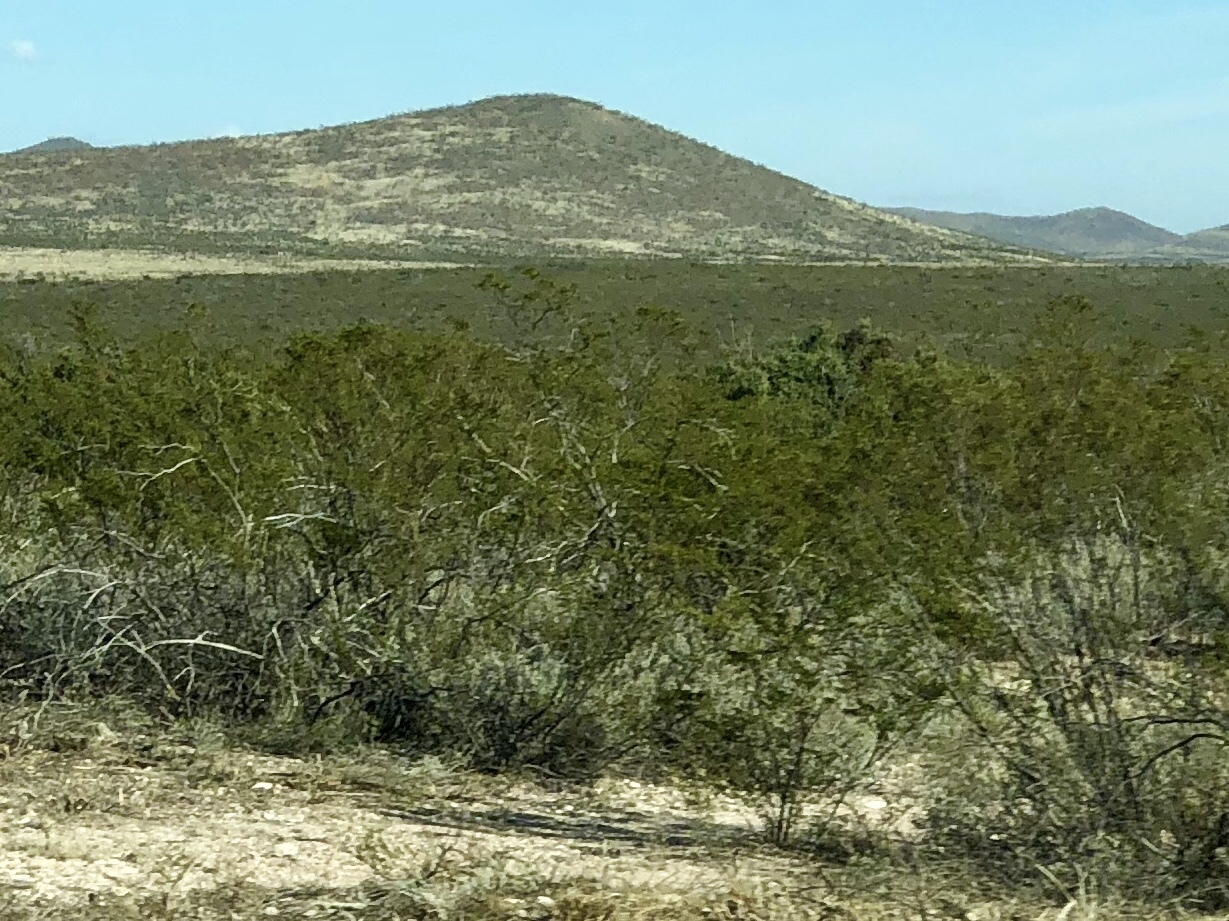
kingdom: Plantae
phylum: Tracheophyta
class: Magnoliopsida
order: Zygophyllales
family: Zygophyllaceae
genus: Larrea
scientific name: Larrea tridentata
